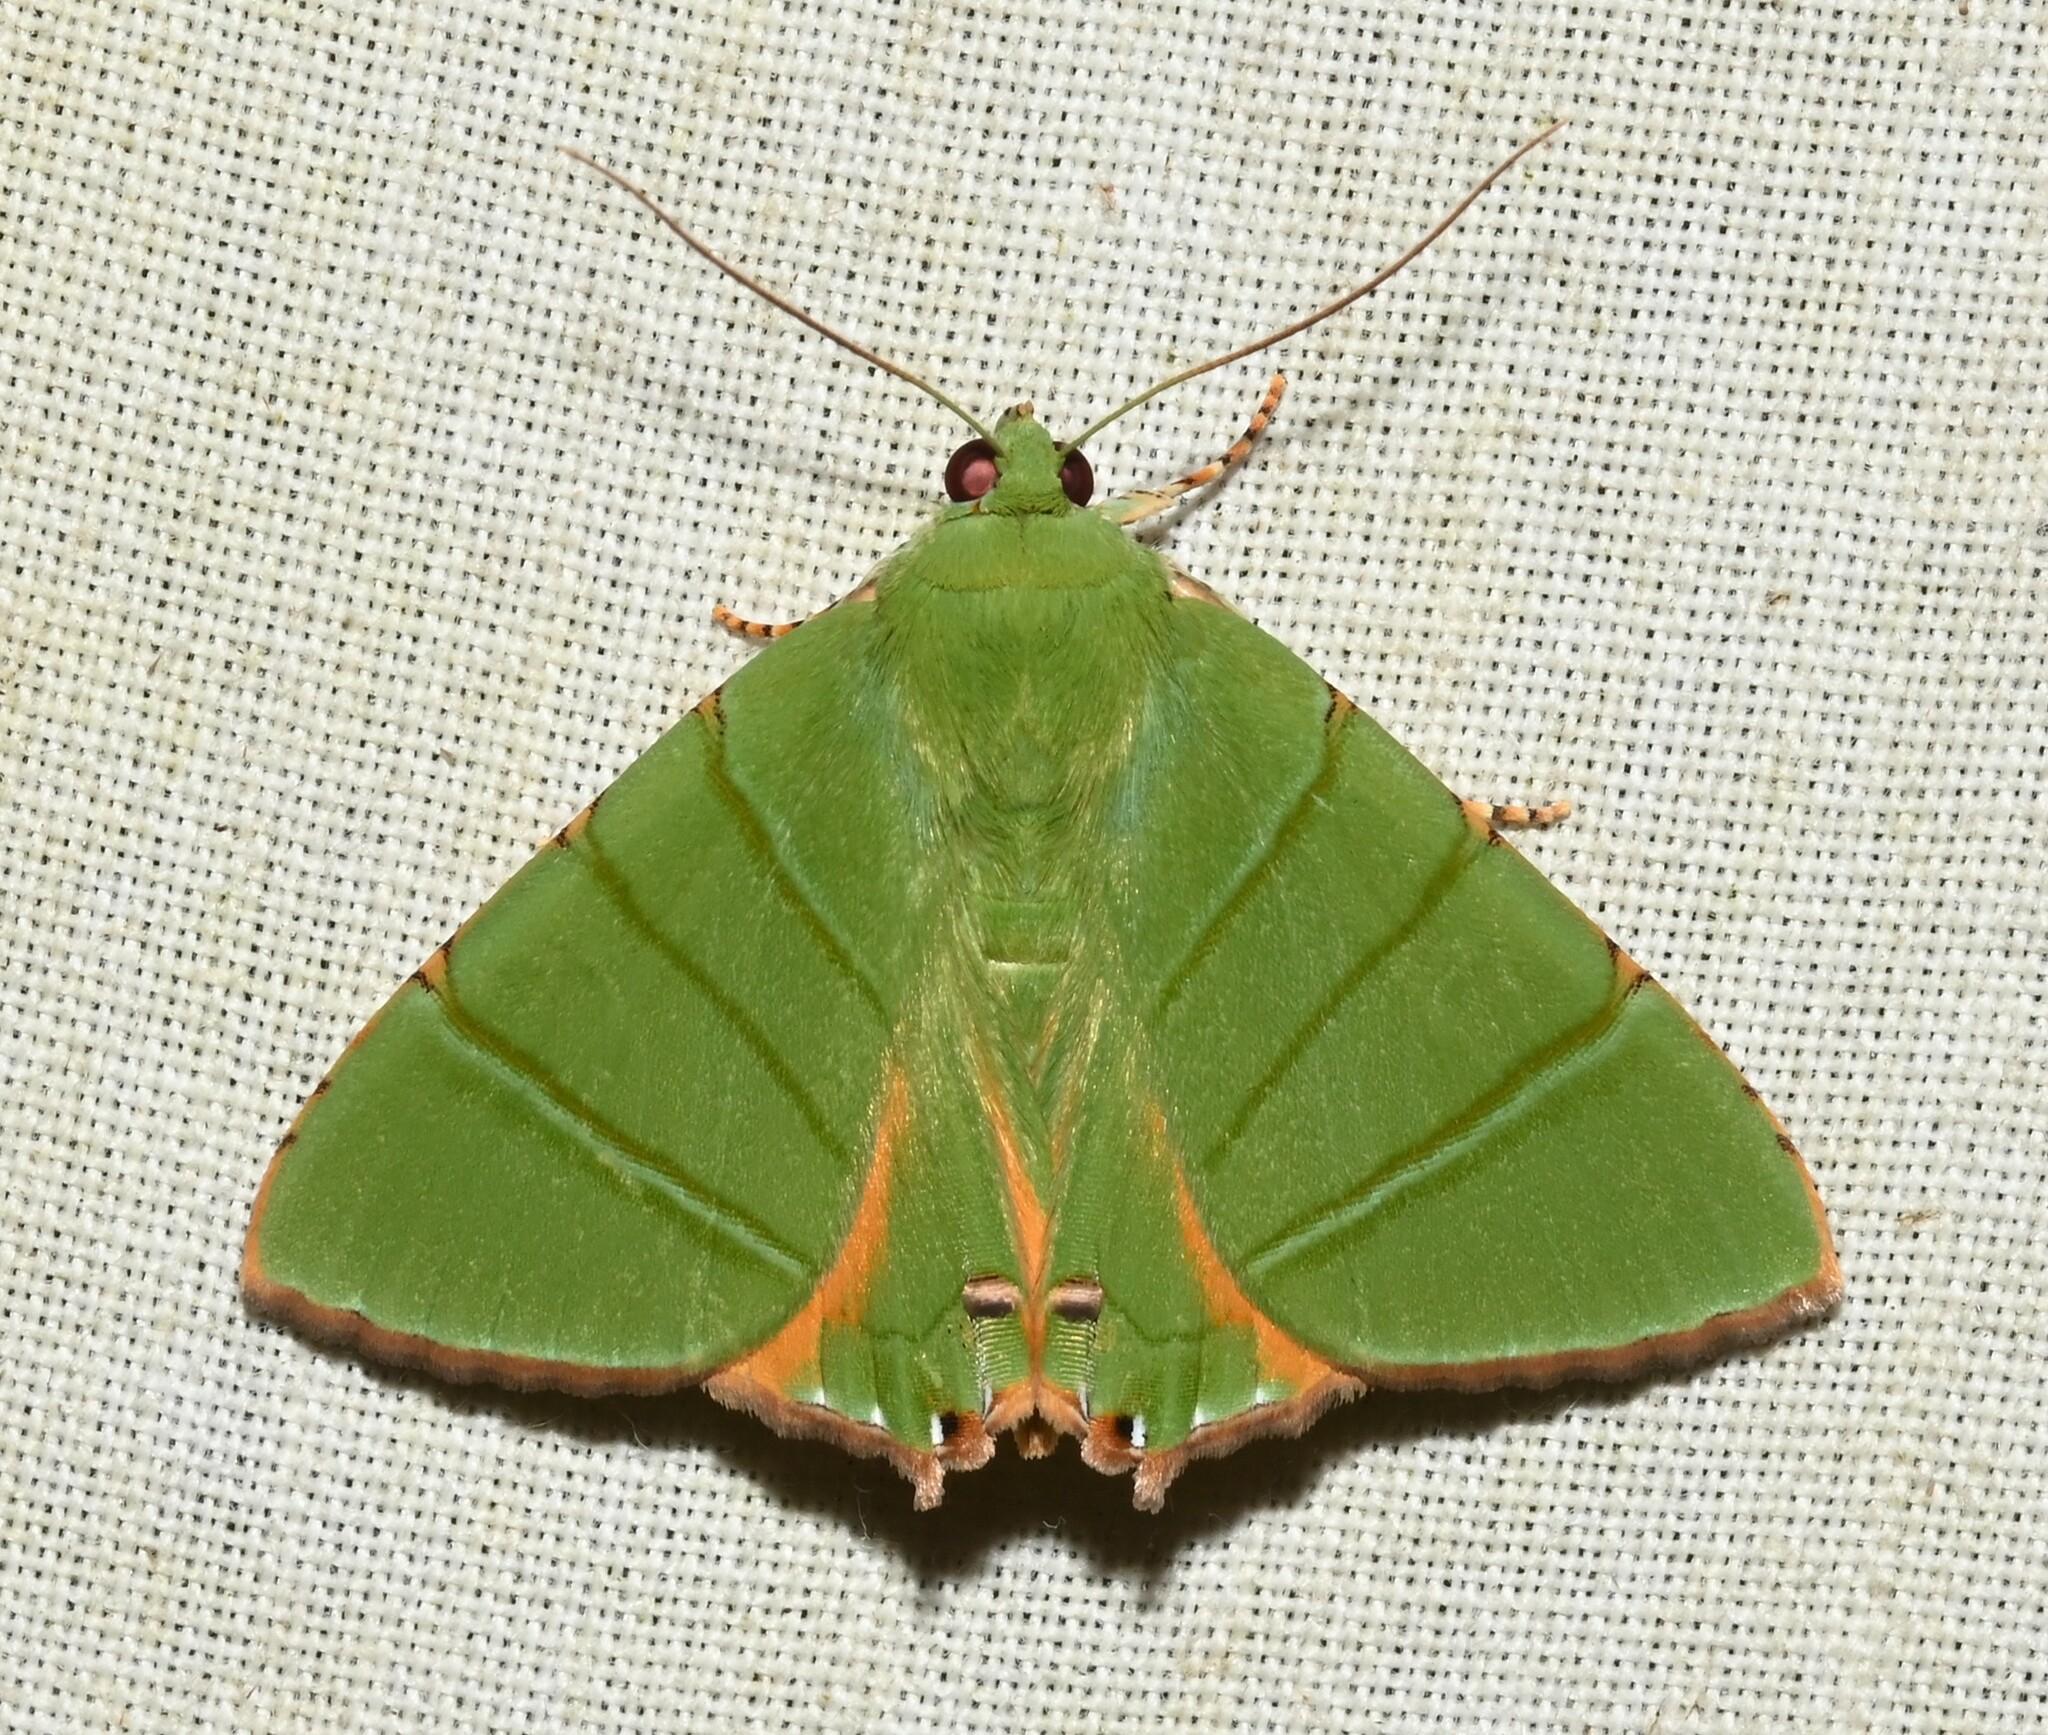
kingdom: Animalia
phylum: Arthropoda
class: Insecta
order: Lepidoptera
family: Erebidae
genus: Eulepidotis
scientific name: Eulepidotis sylpha
